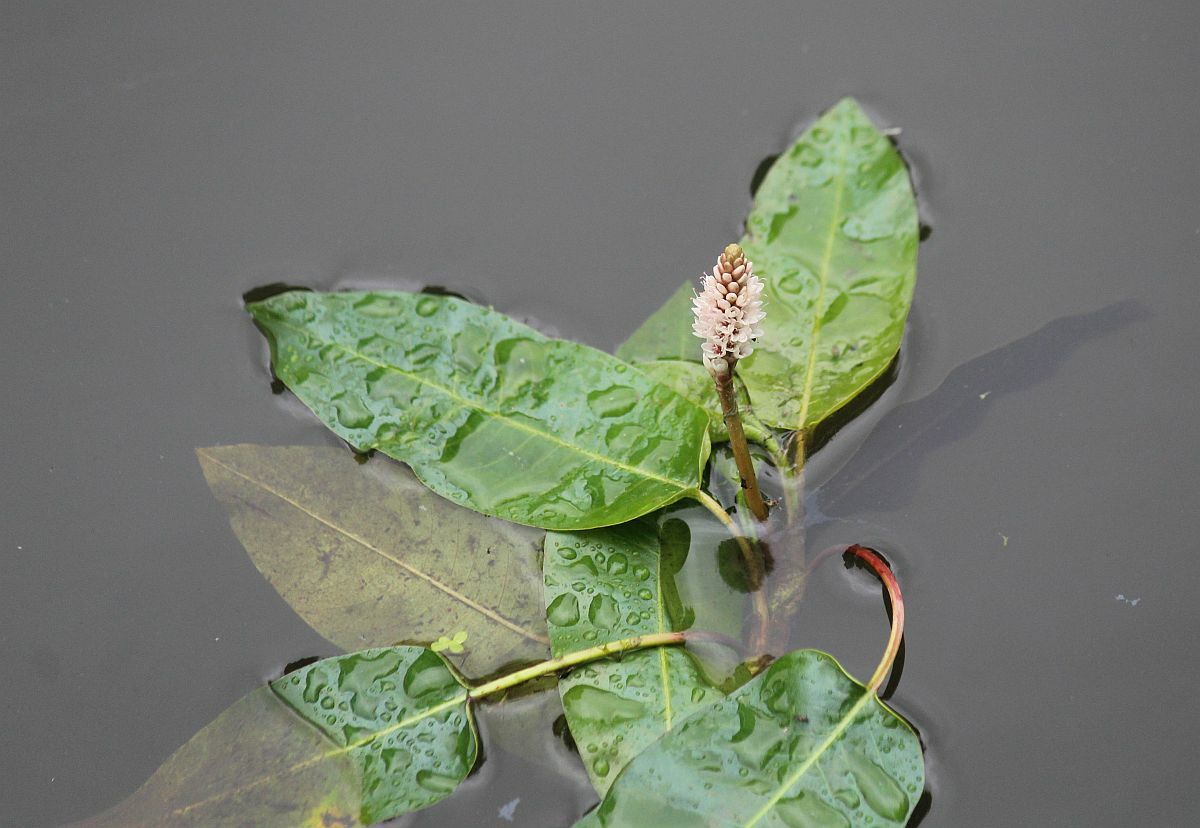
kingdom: Plantae
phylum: Tracheophyta
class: Magnoliopsida
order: Caryophyllales
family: Polygonaceae
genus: Persicaria
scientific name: Persicaria amphibia
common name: Amphibious bistort
